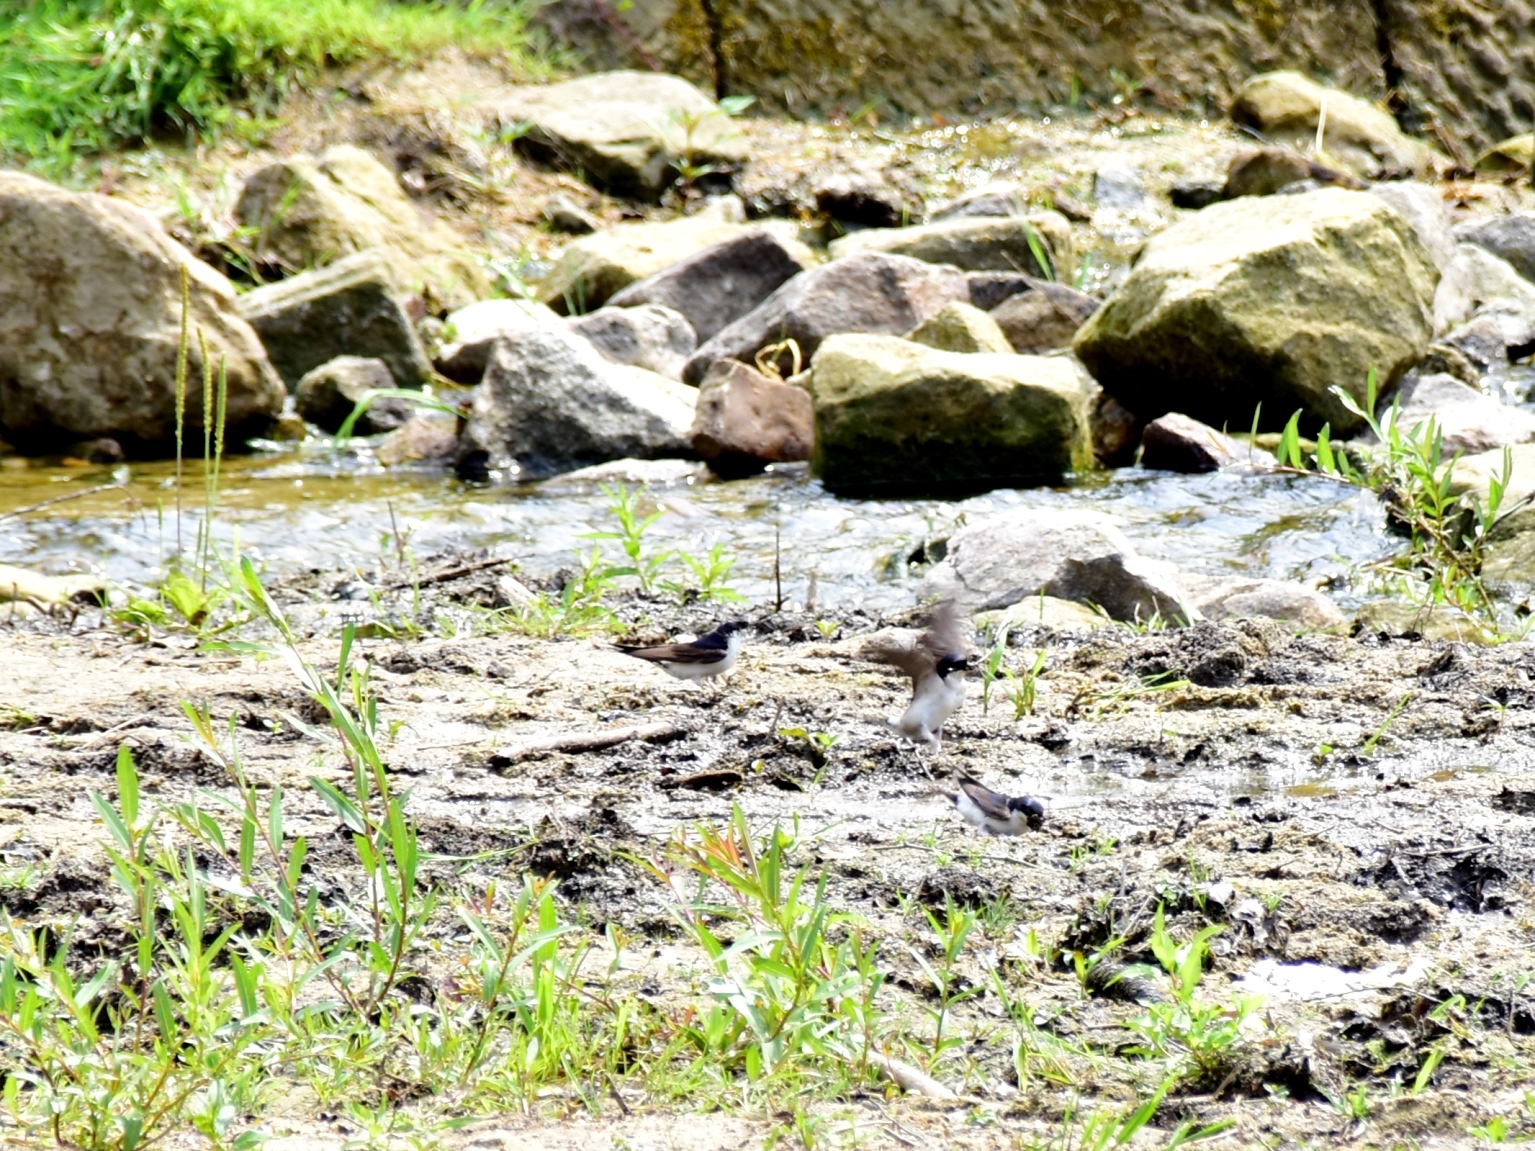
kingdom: Animalia
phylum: Chordata
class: Aves
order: Passeriformes
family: Hirundinidae
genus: Delichon
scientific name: Delichon urbicum
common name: Common house martin
